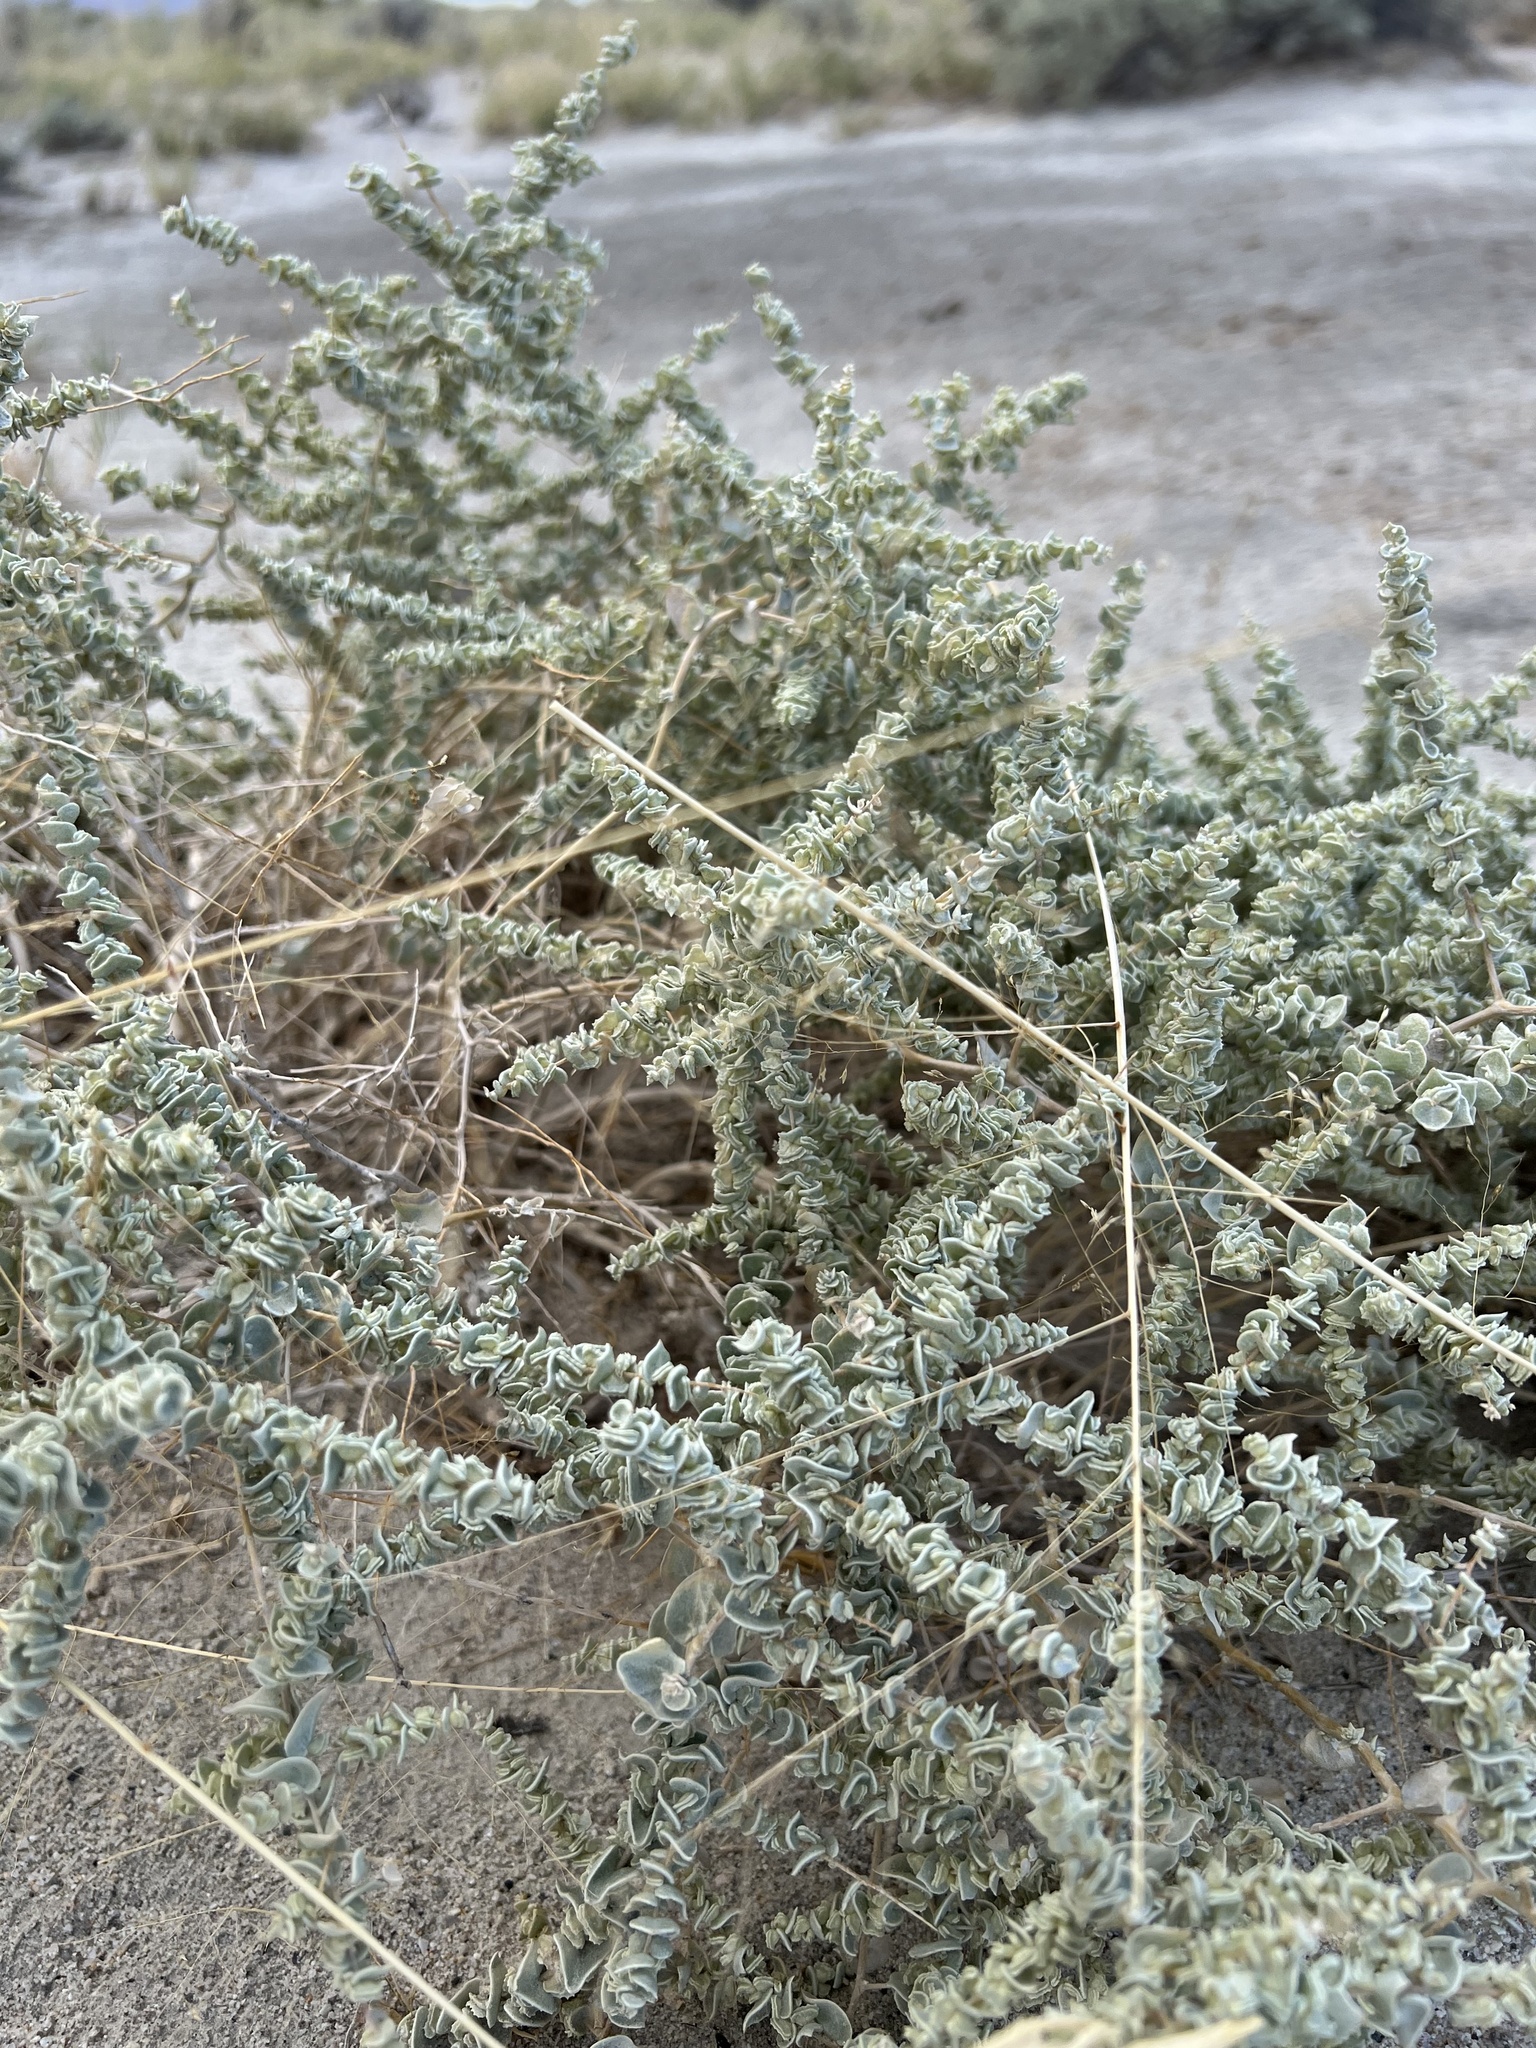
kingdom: Plantae
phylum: Tracheophyta
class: Magnoliopsida
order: Caryophyllales
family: Amaranthaceae
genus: Atriplex
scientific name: Atriplex parryi
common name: Parry's saltbush
